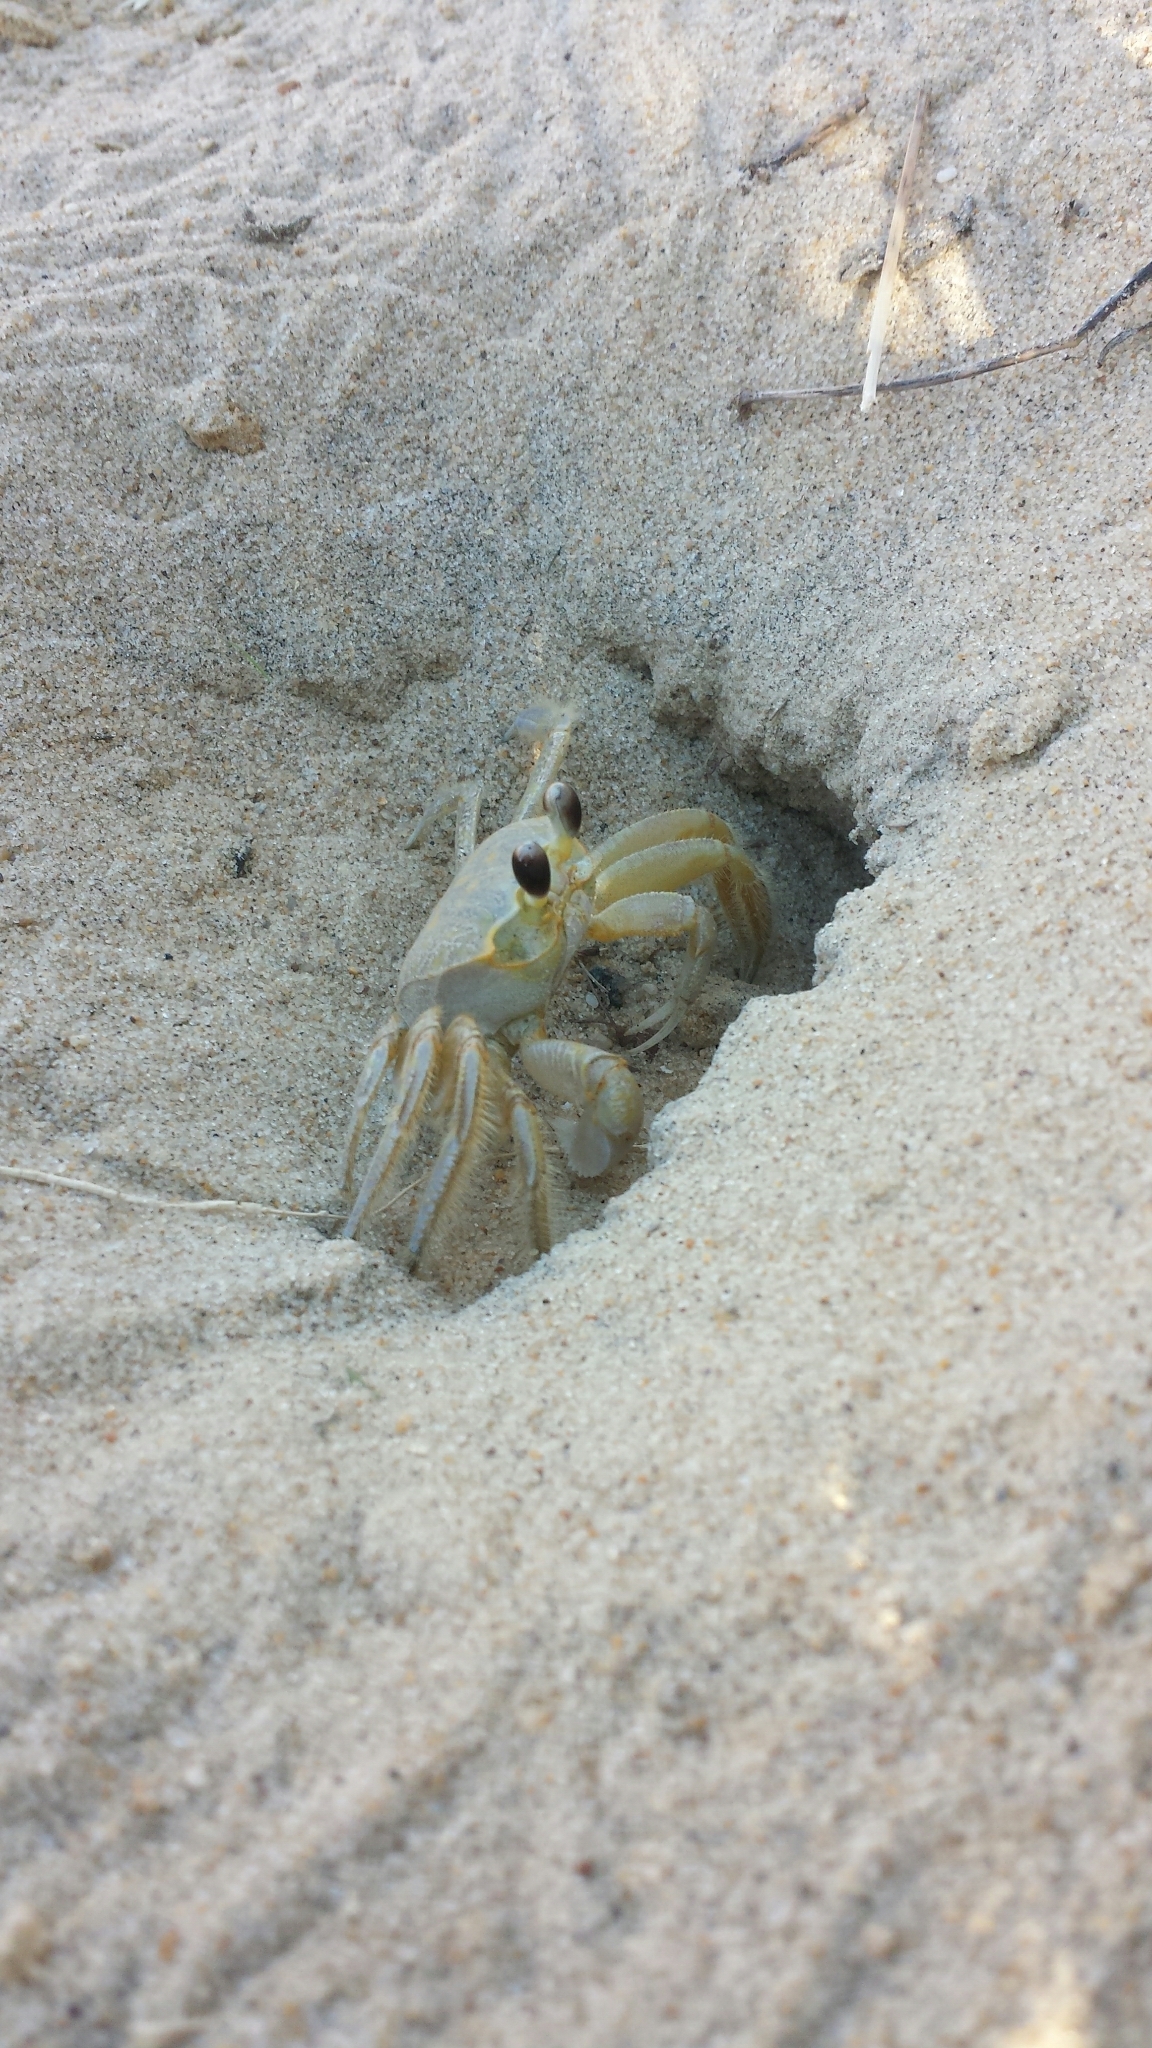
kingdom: Animalia
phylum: Arthropoda
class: Malacostraca
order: Decapoda
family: Ocypodidae
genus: Ocypode
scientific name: Ocypode quadrata
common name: Ghost crab
